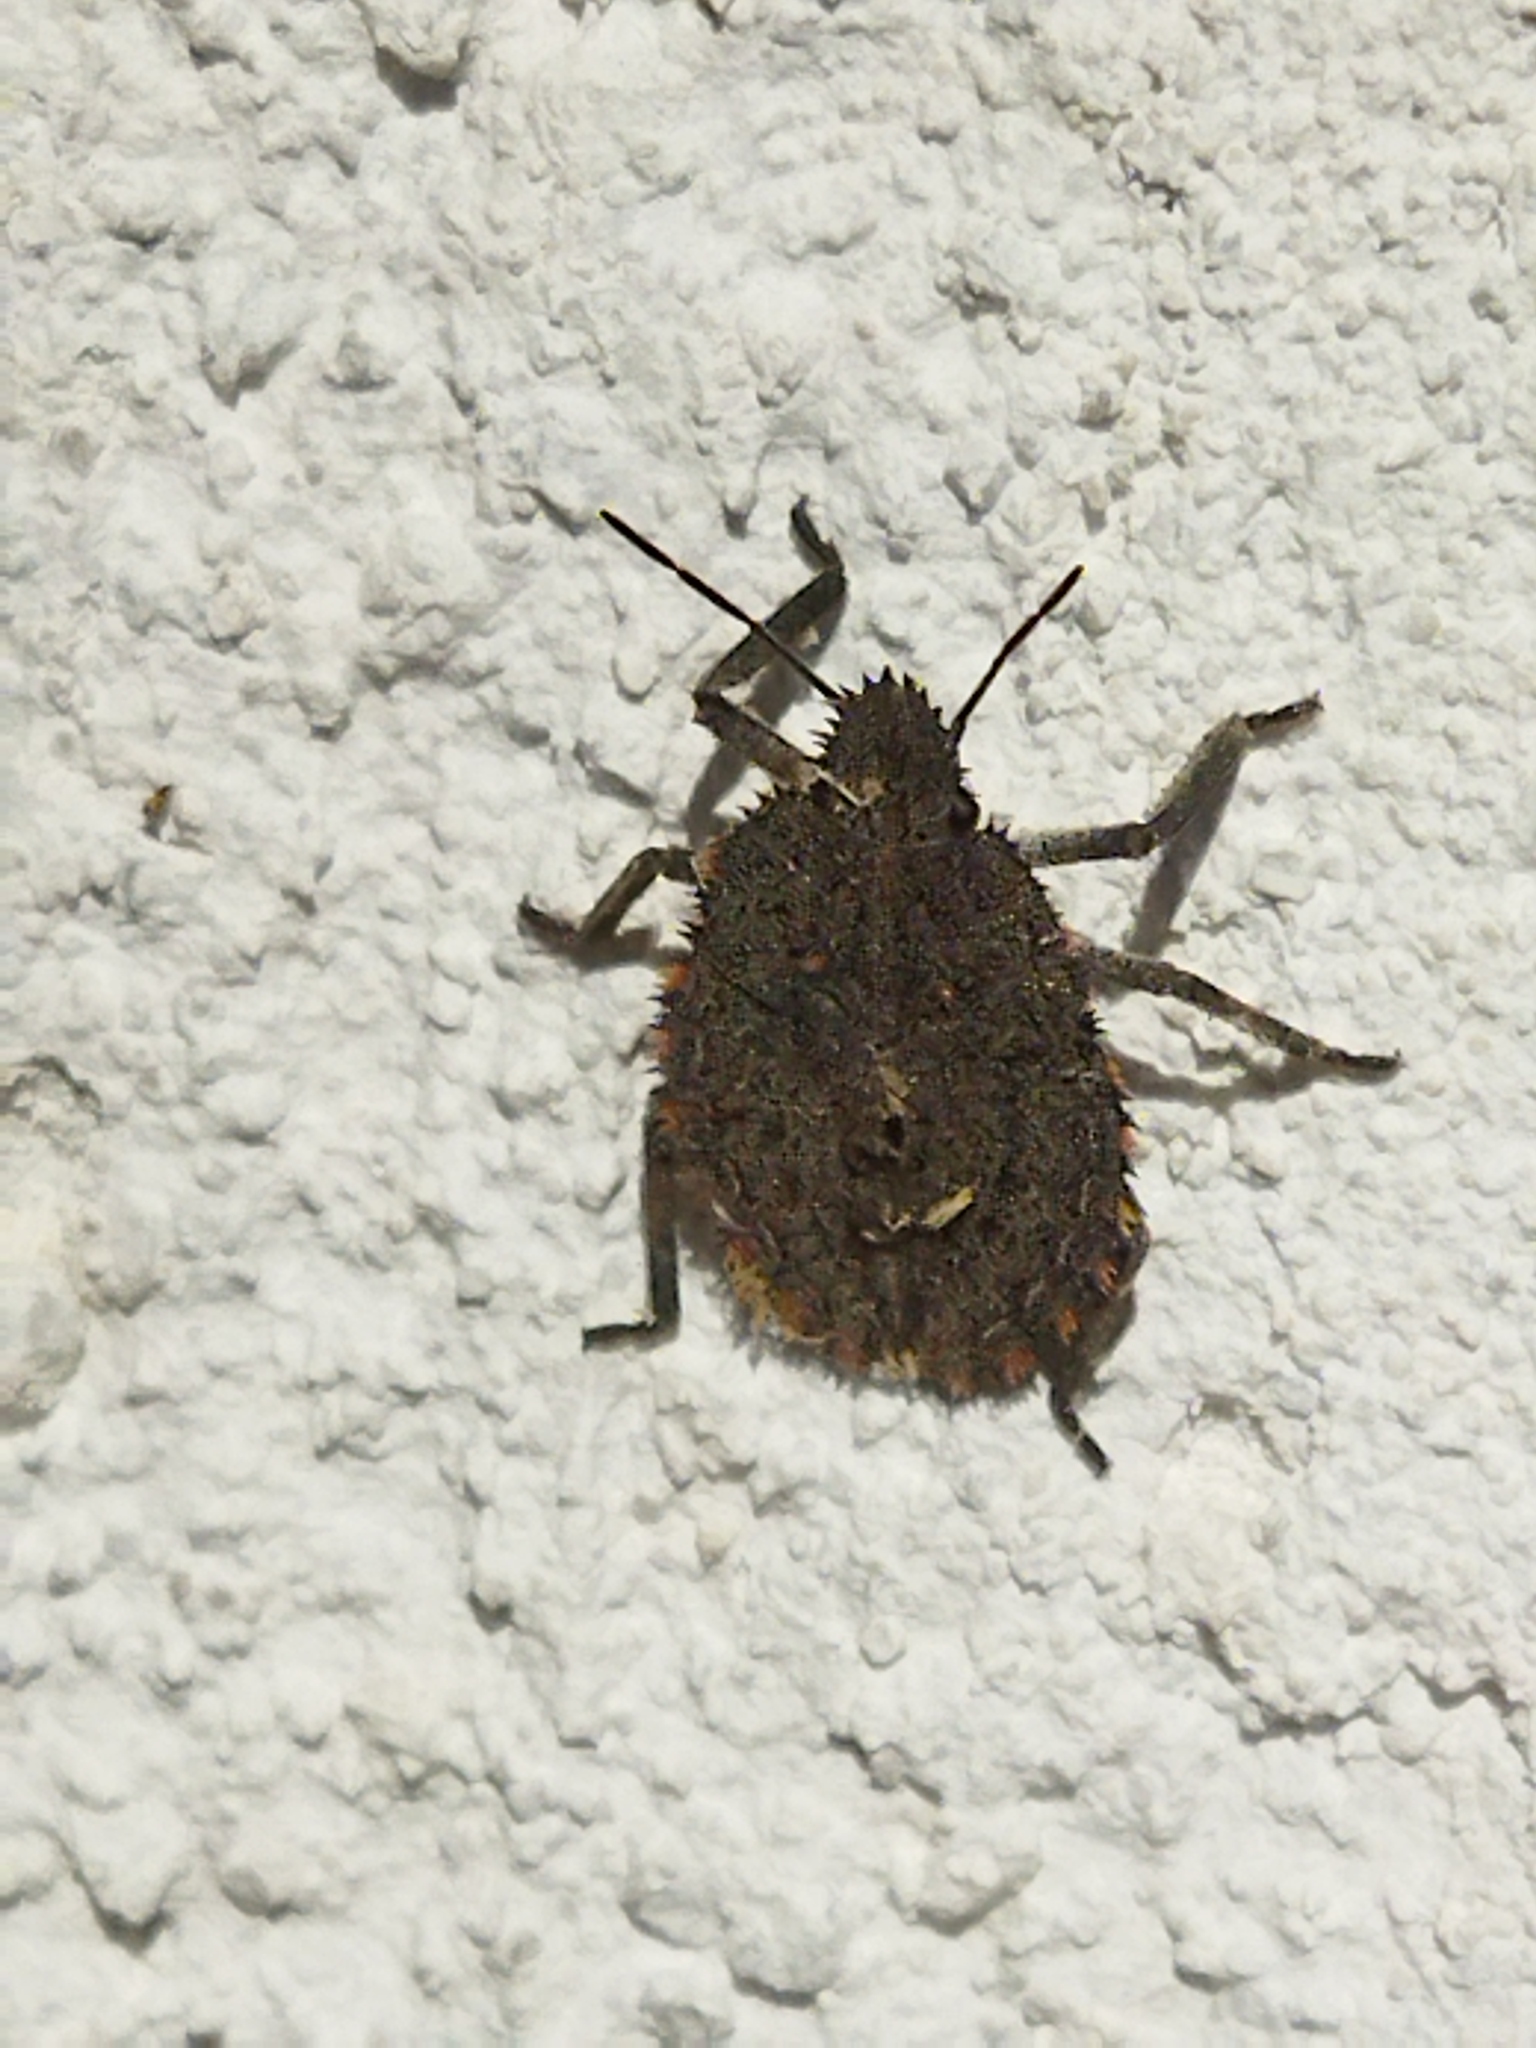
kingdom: Animalia
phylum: Arthropoda
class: Insecta
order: Hemiptera
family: Pentatomidae
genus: Mustha
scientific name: Mustha spinosula
